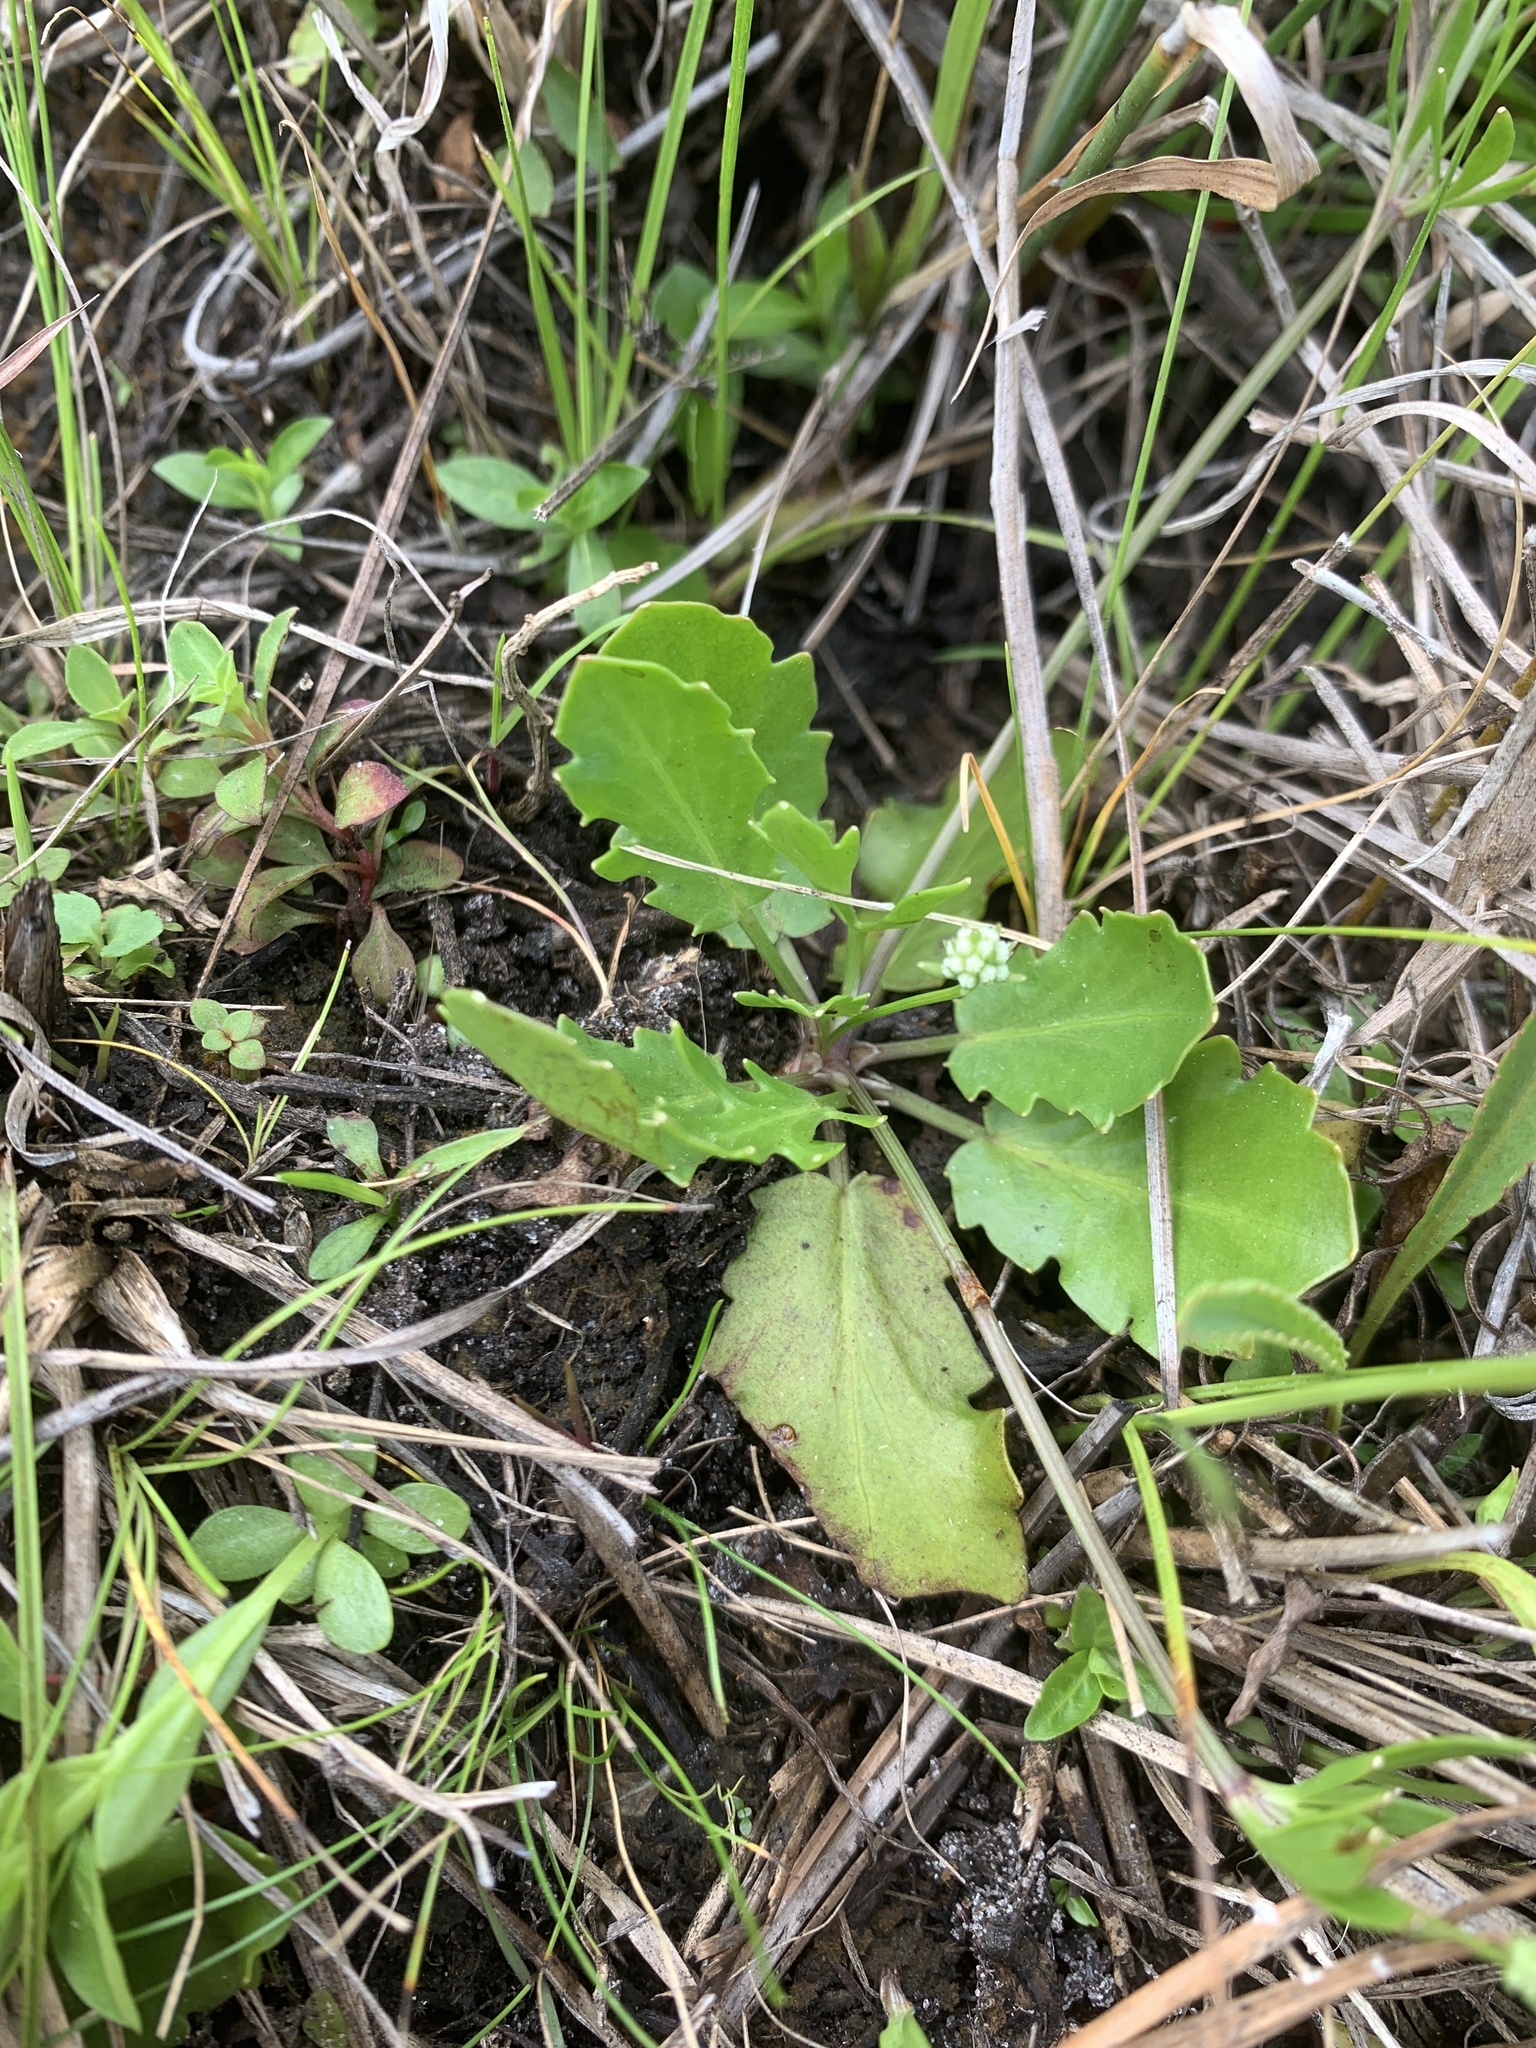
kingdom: Plantae
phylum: Tracheophyta
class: Magnoliopsida
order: Apiales
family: Apiaceae
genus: Eryngium
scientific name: Eryngium baldwinii
